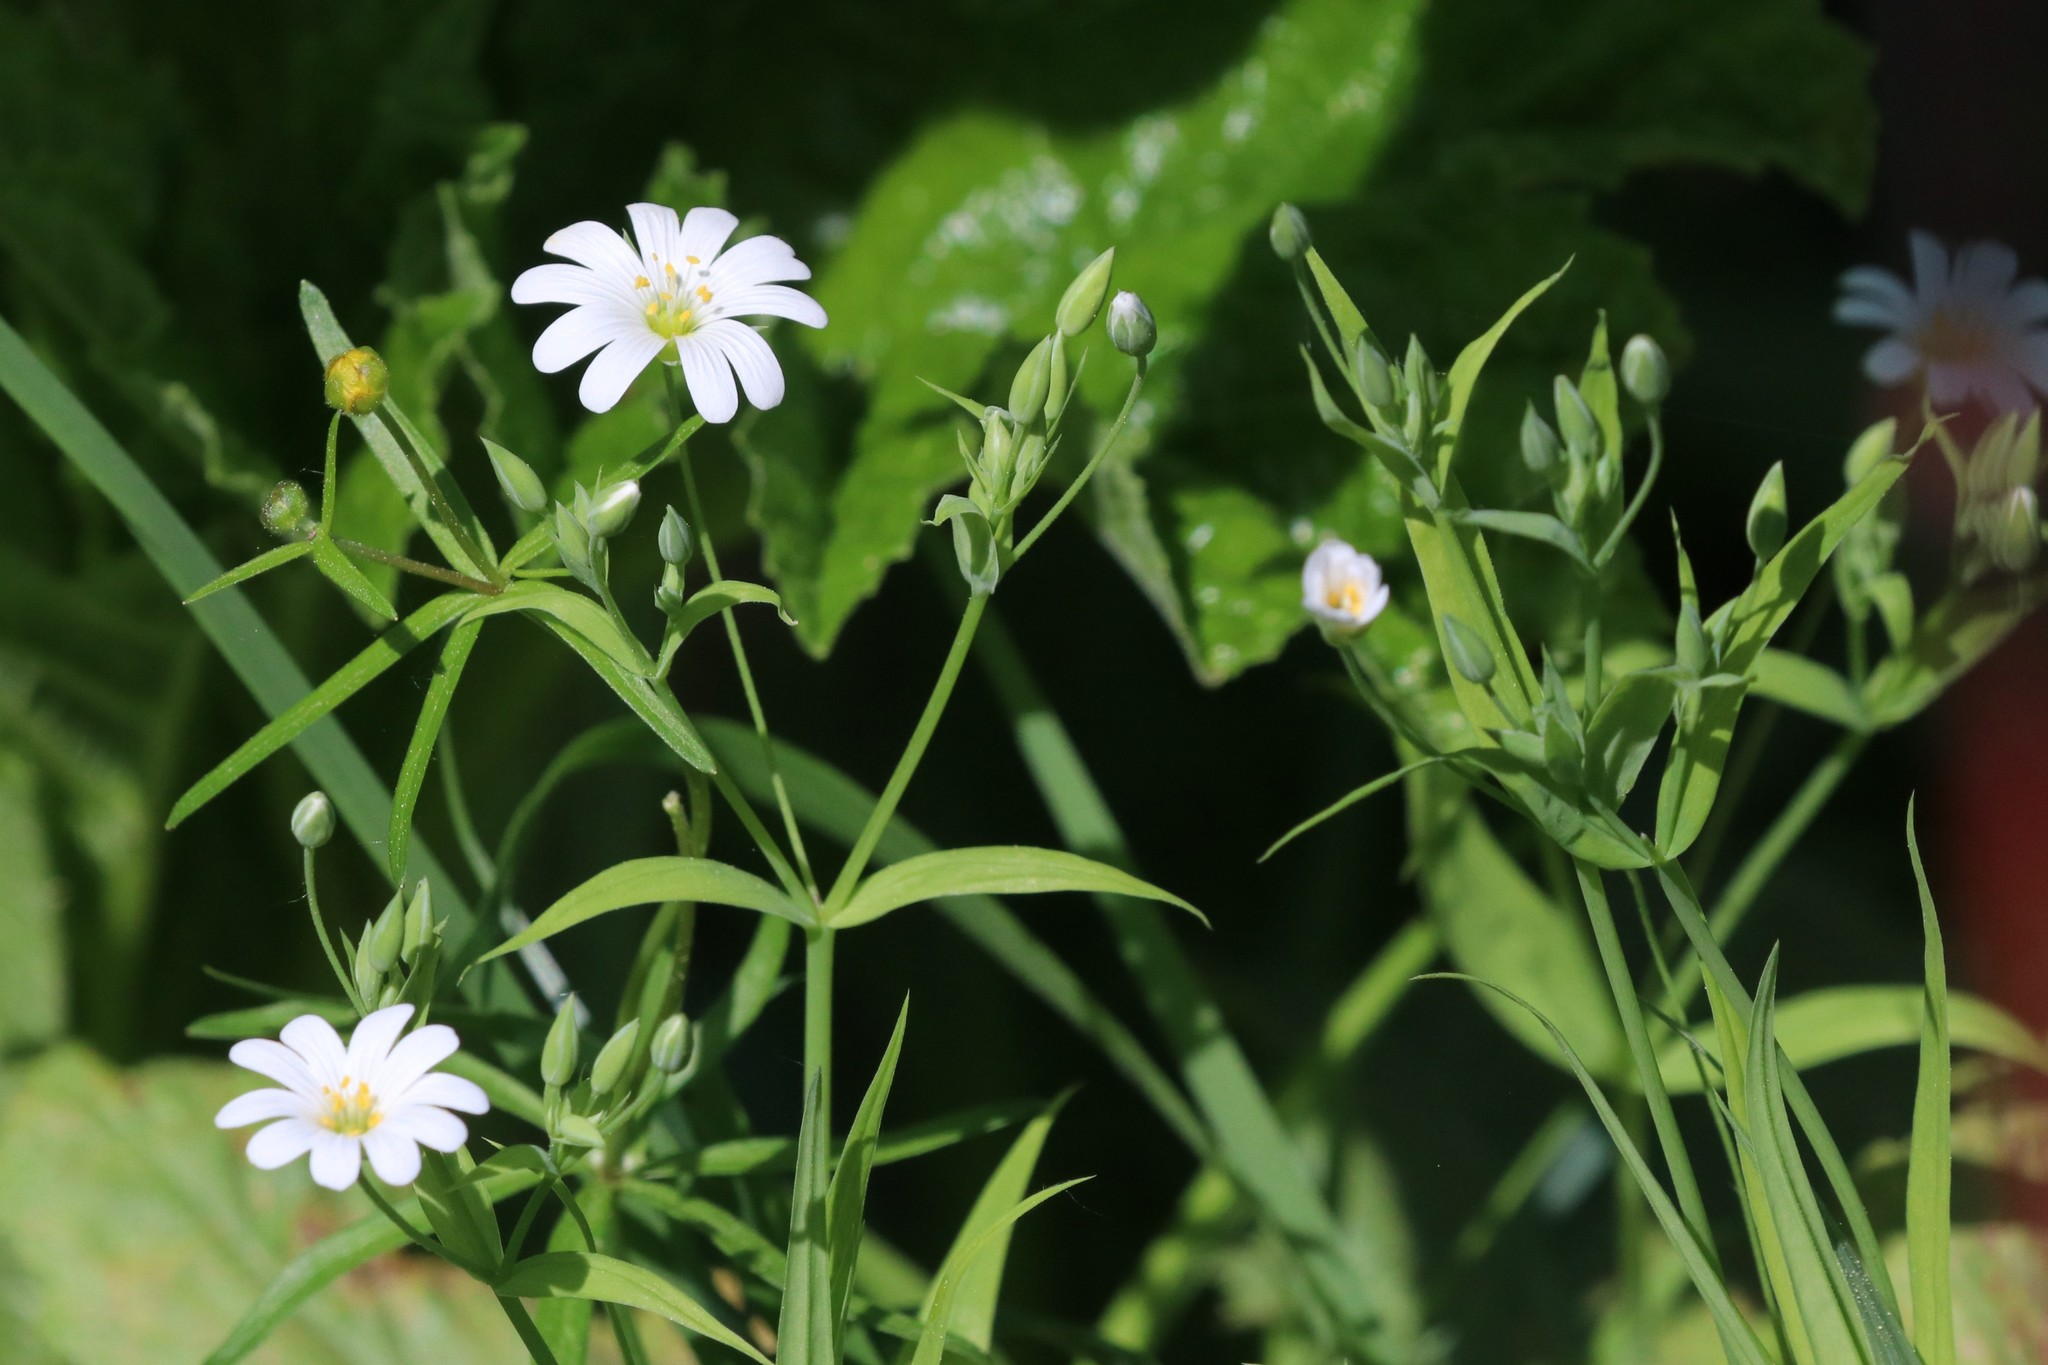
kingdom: Plantae
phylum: Tracheophyta
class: Magnoliopsida
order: Caryophyllales
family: Caryophyllaceae
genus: Rabelera
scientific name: Rabelera holostea
